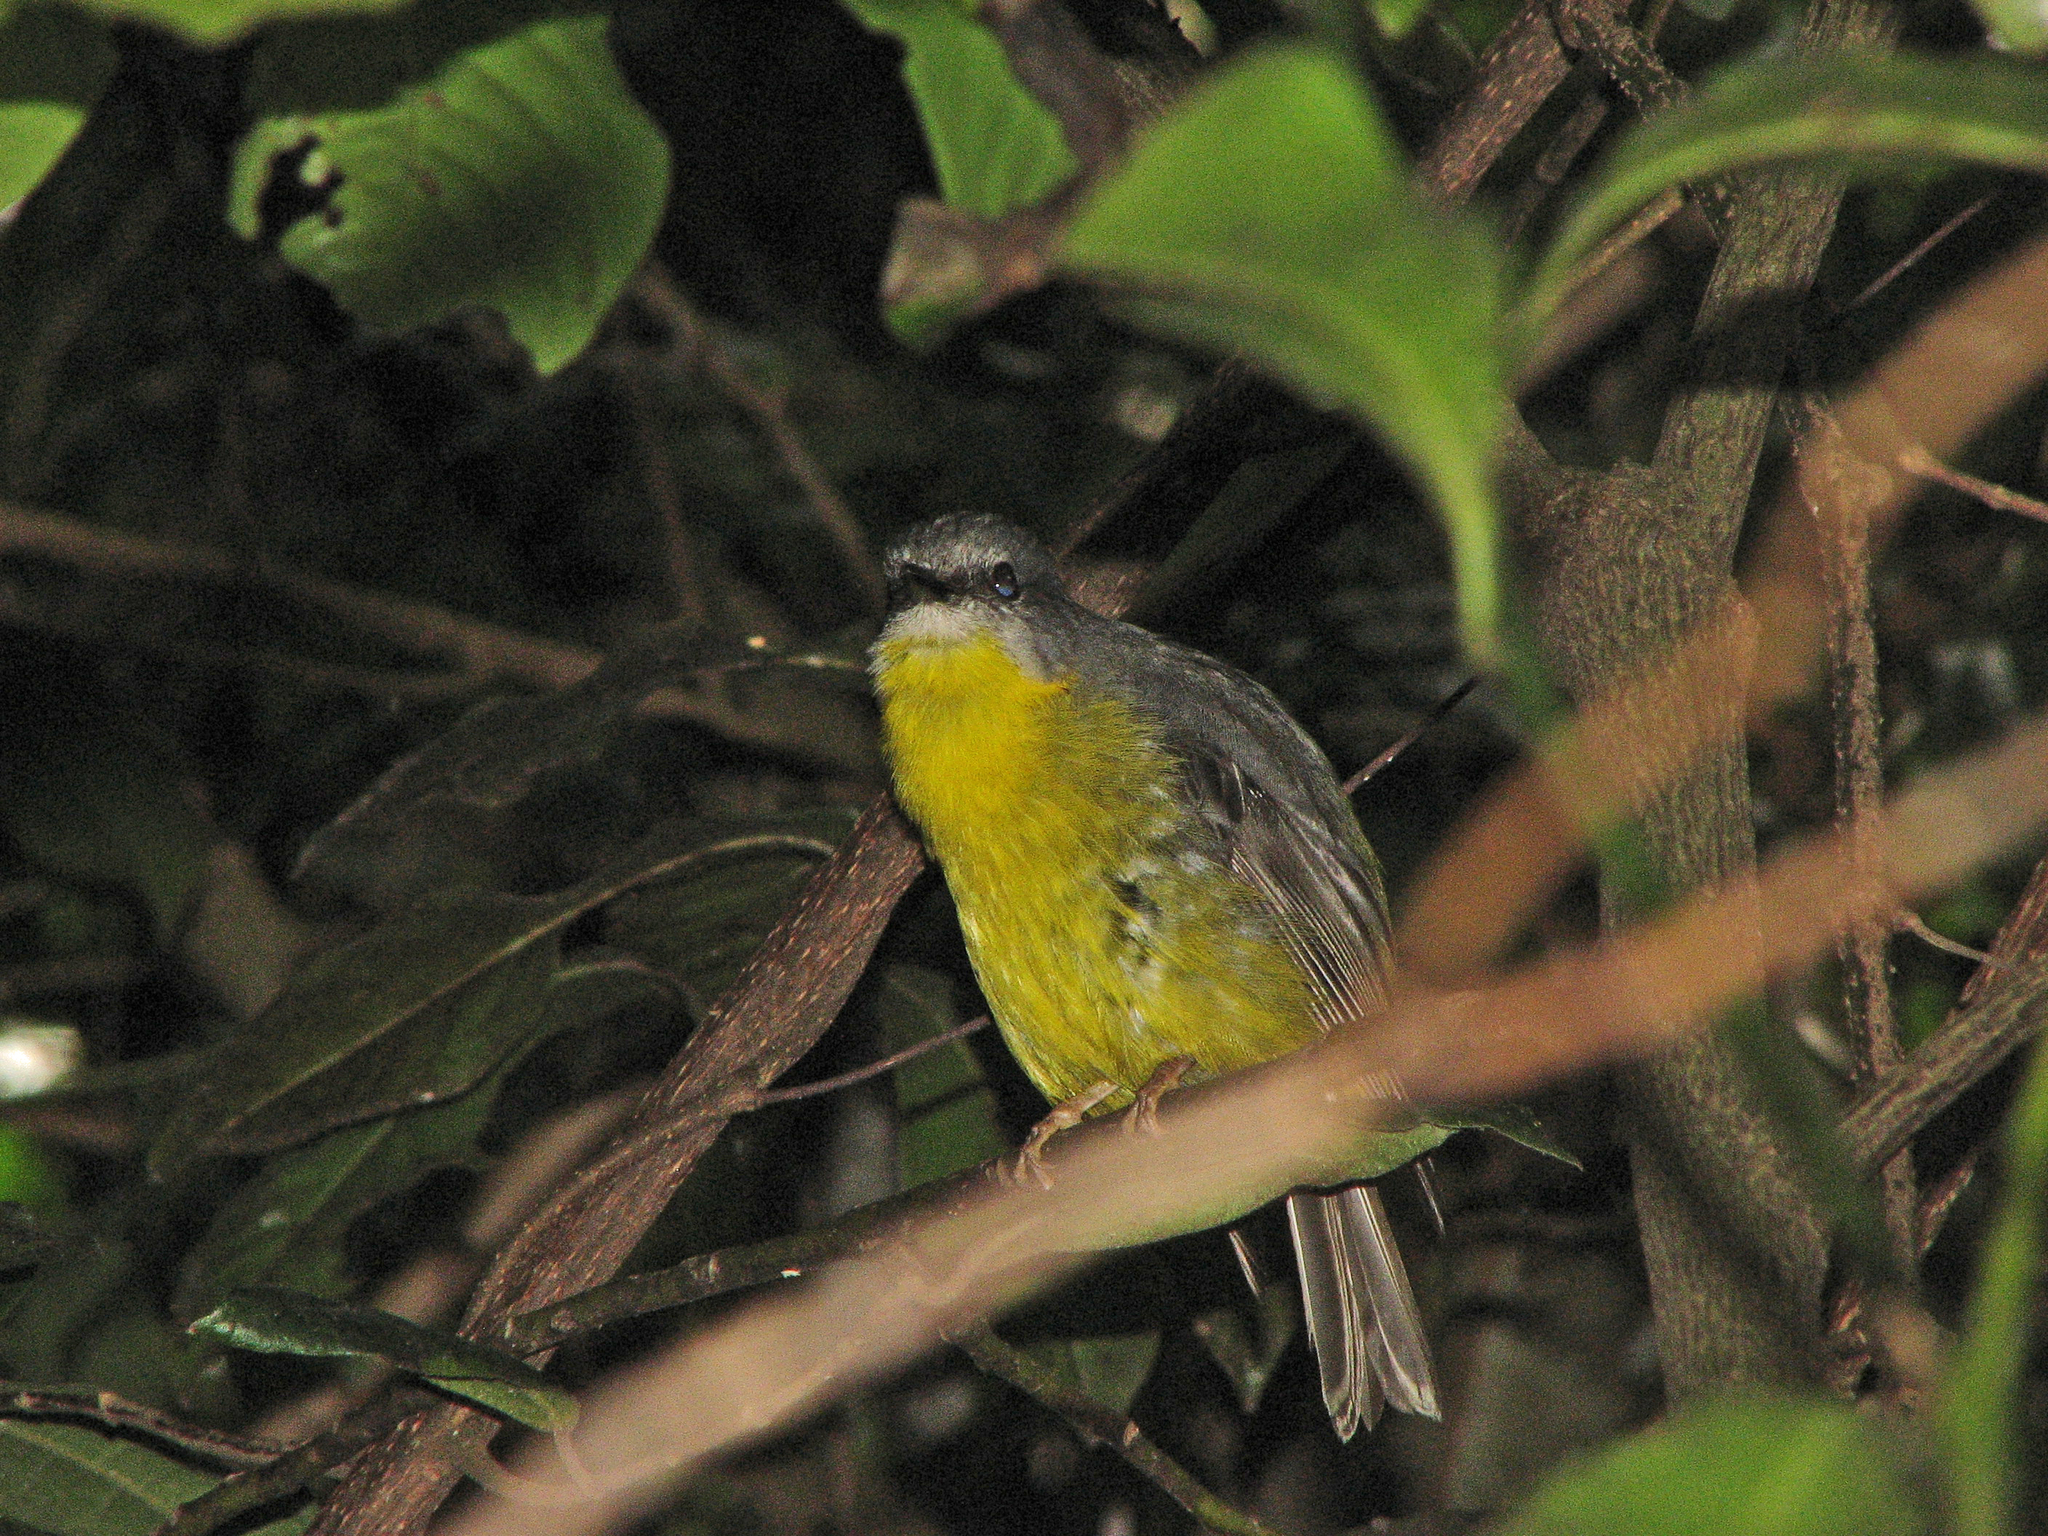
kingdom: Animalia
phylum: Chordata
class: Aves
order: Passeriformes
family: Petroicidae
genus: Eopsaltria
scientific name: Eopsaltria
